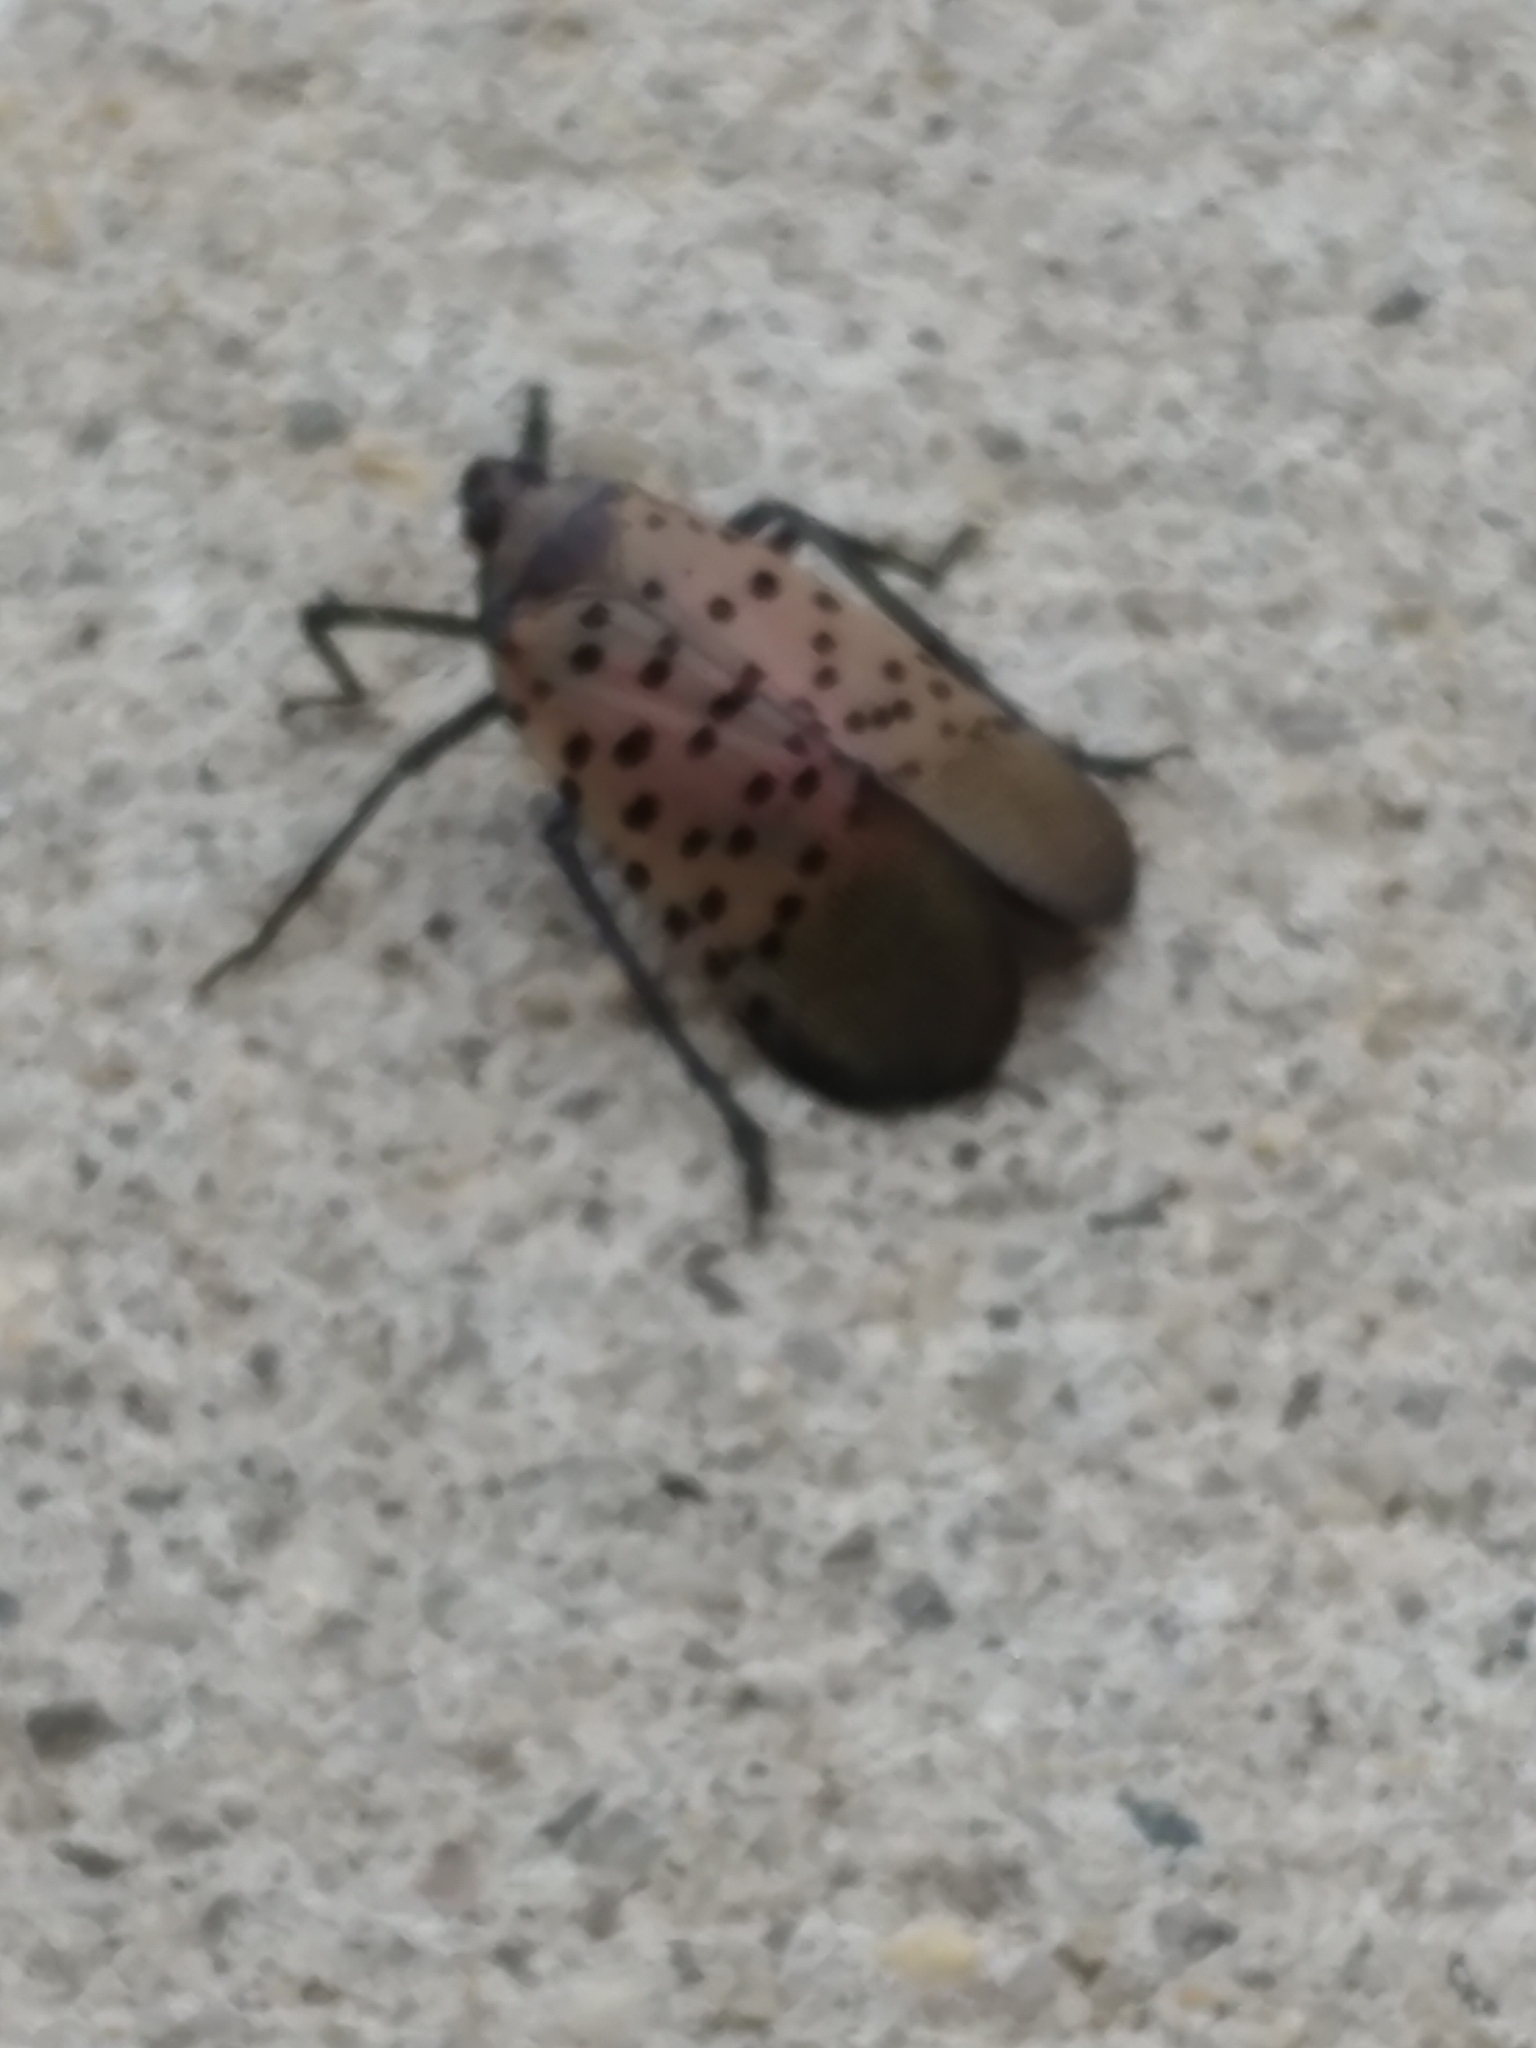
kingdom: Animalia
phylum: Arthropoda
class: Insecta
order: Hemiptera
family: Fulgoridae
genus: Lycorma
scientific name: Lycorma delicatula
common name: Spotted lanternfly
